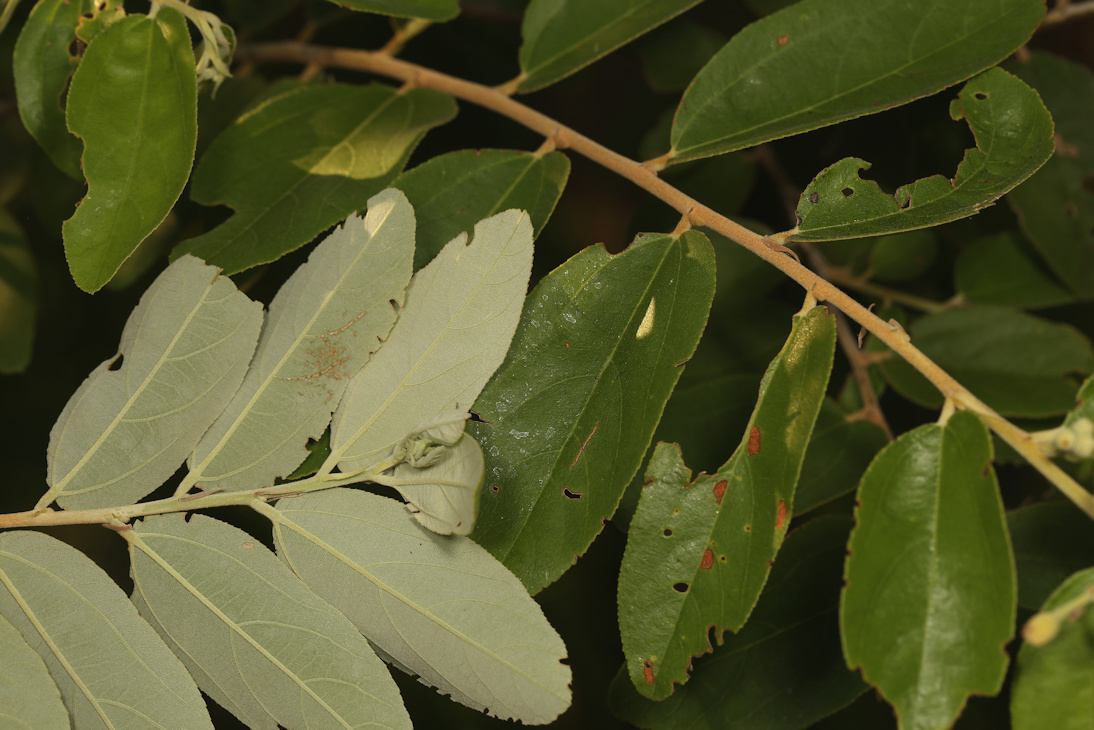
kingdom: Plantae
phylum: Tracheophyta
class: Magnoliopsida
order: Malvales
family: Malvaceae
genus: Grewia
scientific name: Grewia bicolor
